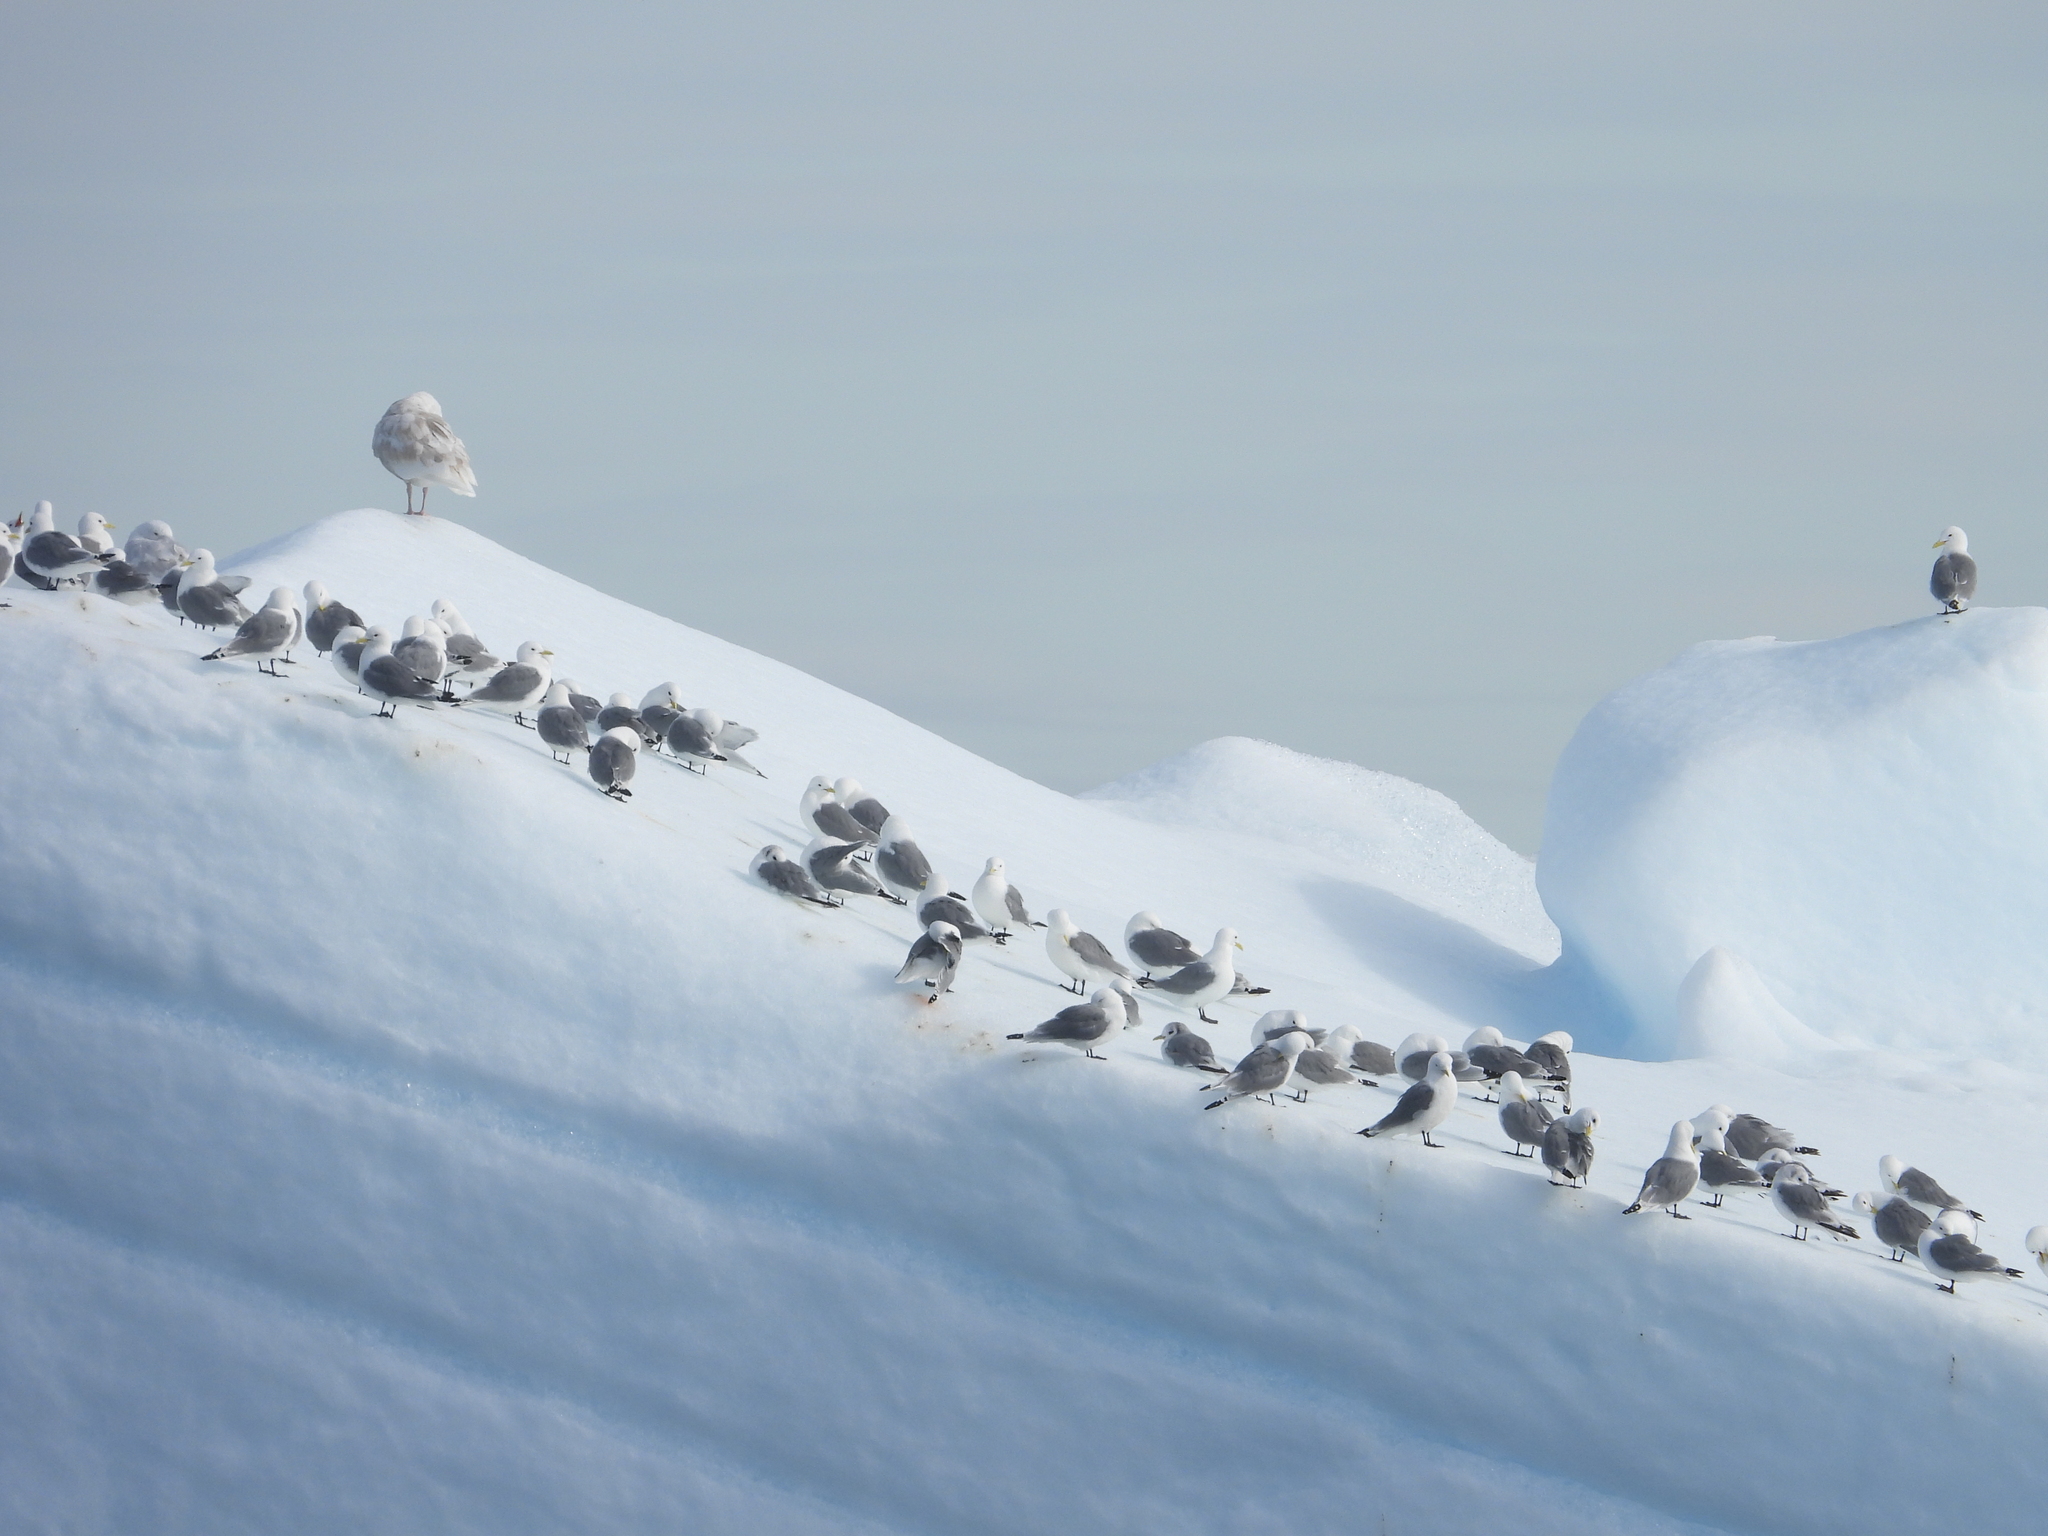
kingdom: Animalia
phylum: Chordata
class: Aves
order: Charadriiformes
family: Laridae
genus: Rissa
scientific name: Rissa tridactyla
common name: Black-legged kittiwake
